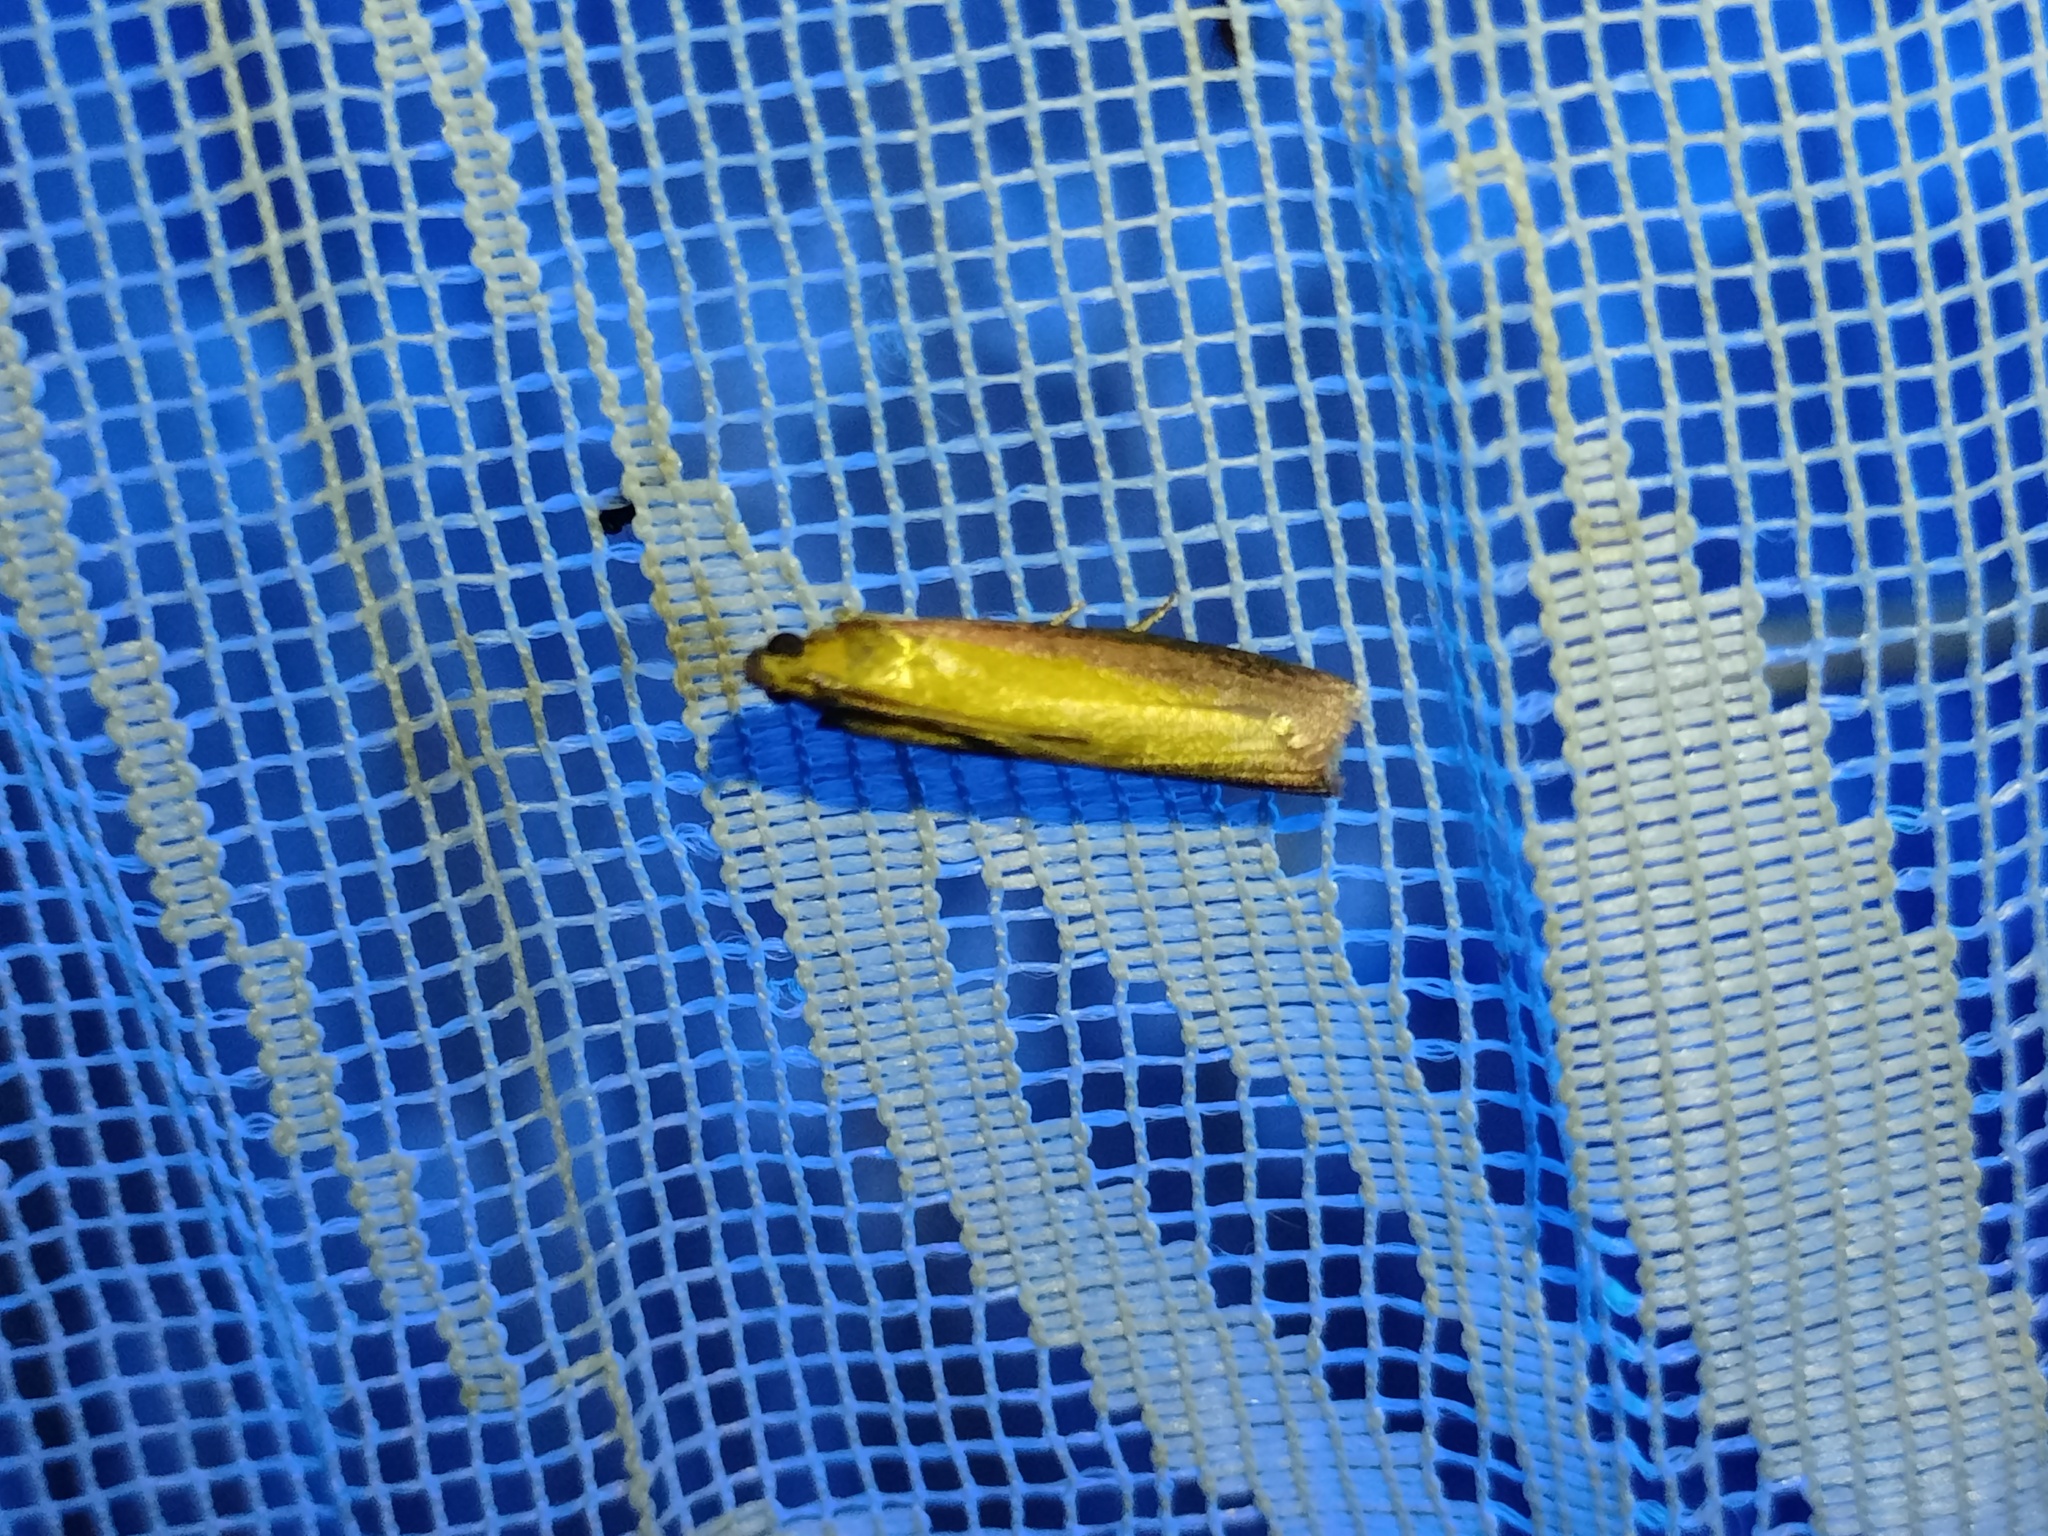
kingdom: Animalia
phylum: Arthropoda
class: Insecta
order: Lepidoptera
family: Pyralidae
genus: Oncocera
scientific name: Oncocera semirubella
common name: Rosy-striped knot-horn
